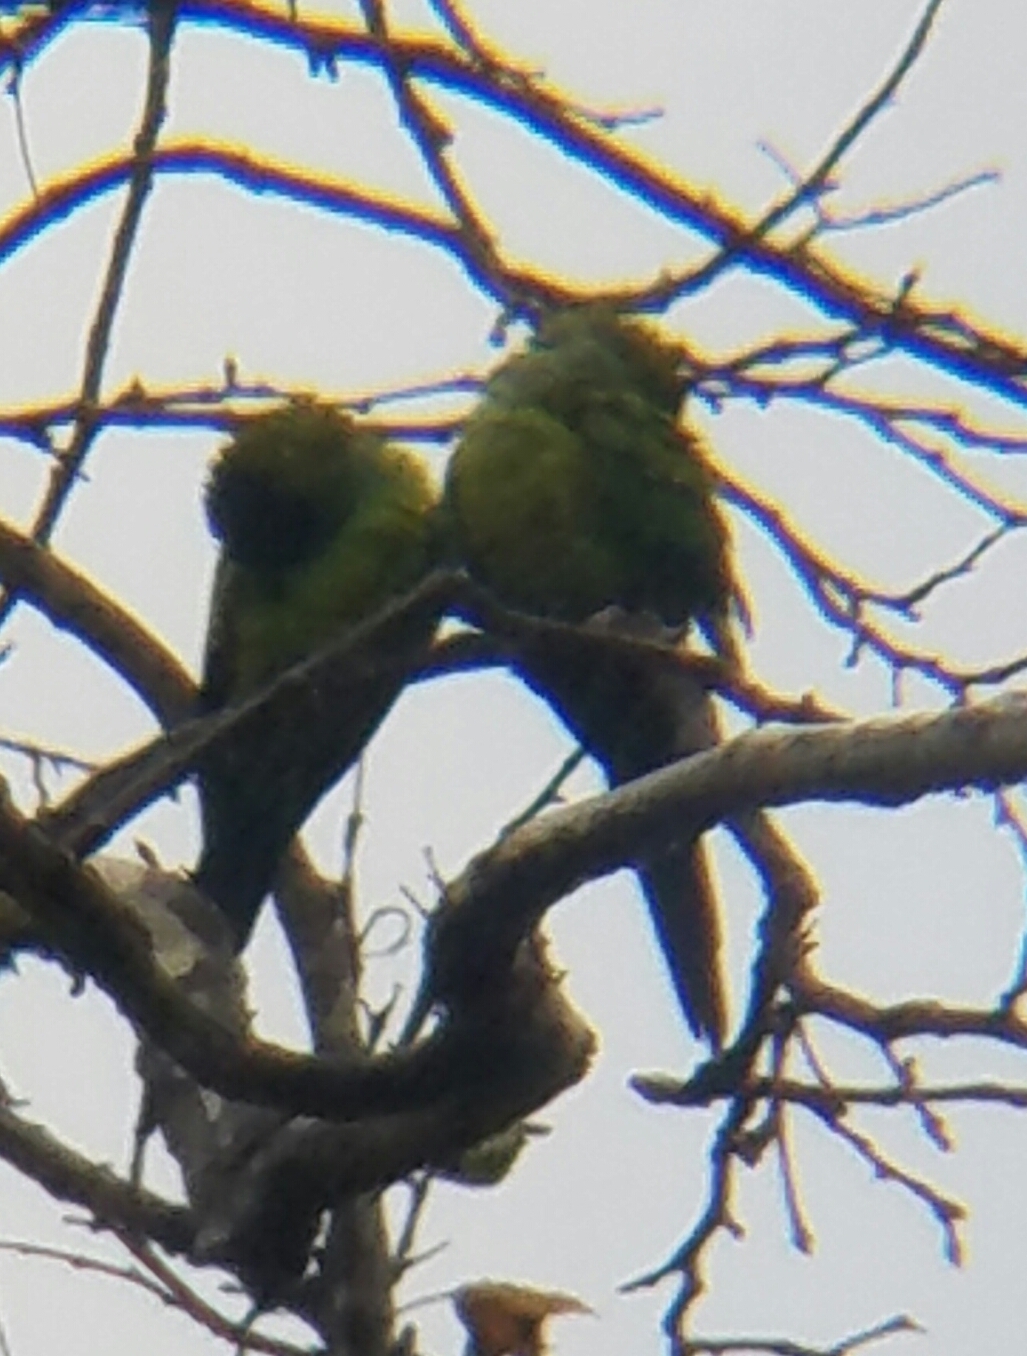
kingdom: Animalia
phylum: Chordata
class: Aves
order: Psittaciformes
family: Psittacidae
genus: Nandayus
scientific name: Nandayus nenday
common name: Nanday parakeet
